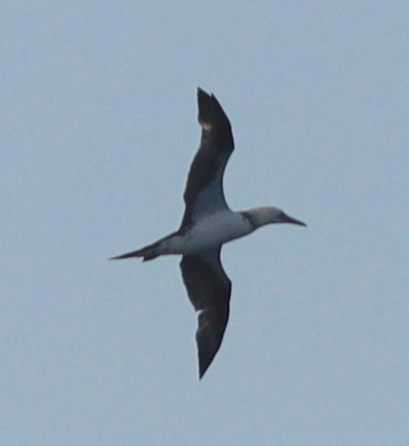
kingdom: Animalia
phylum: Chordata
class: Aves
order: Suliformes
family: Sulidae
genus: Morus
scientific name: Morus bassanus
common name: Northern gannet
